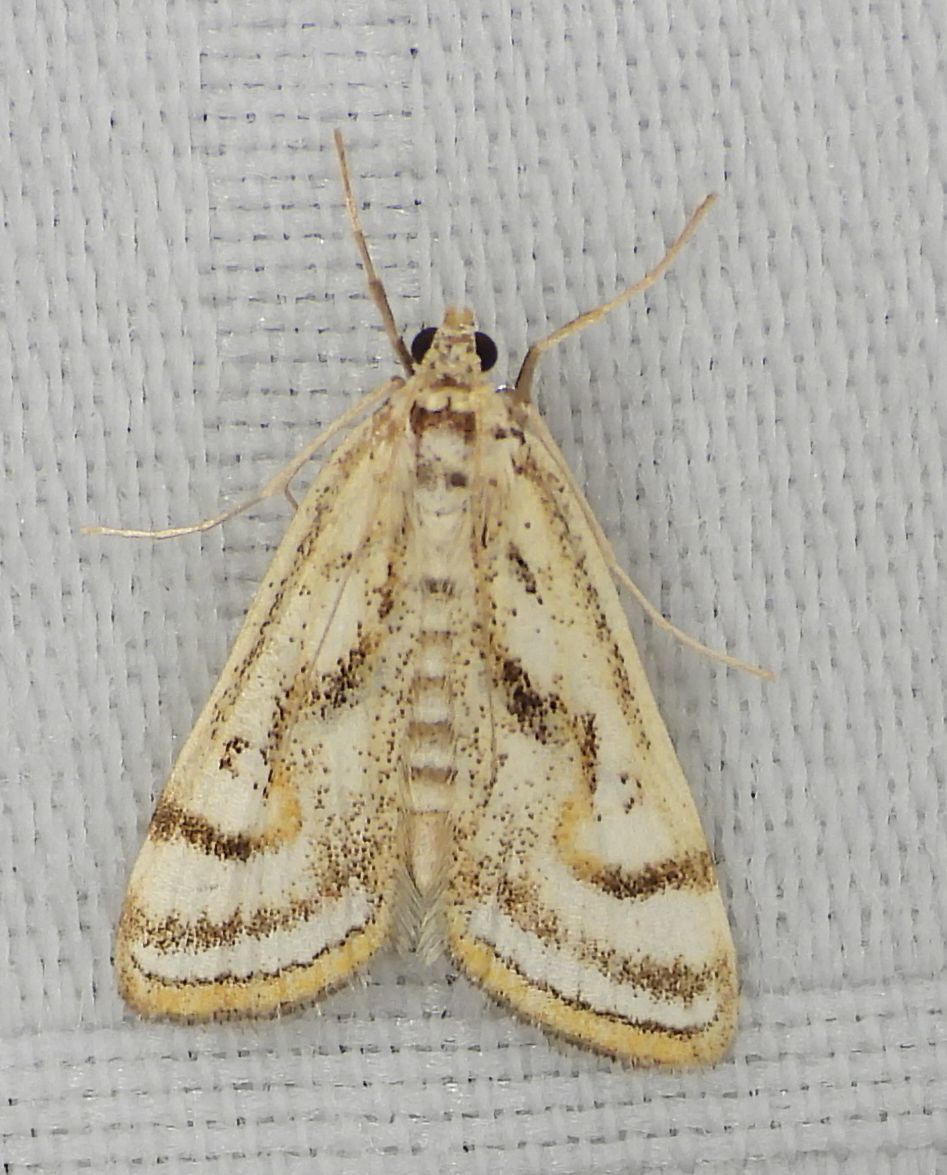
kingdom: Animalia
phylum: Arthropoda
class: Insecta
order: Lepidoptera
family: Crambidae
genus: Parapoynx
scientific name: Parapoynx badiusalis
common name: Chestnut-marked pondweed moth
